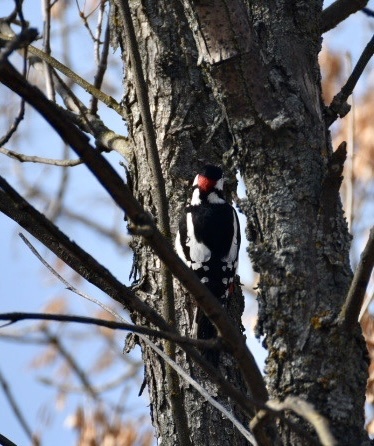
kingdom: Animalia
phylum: Chordata
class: Aves
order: Piciformes
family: Picidae
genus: Dendrocopos
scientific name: Dendrocopos major
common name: Great spotted woodpecker
